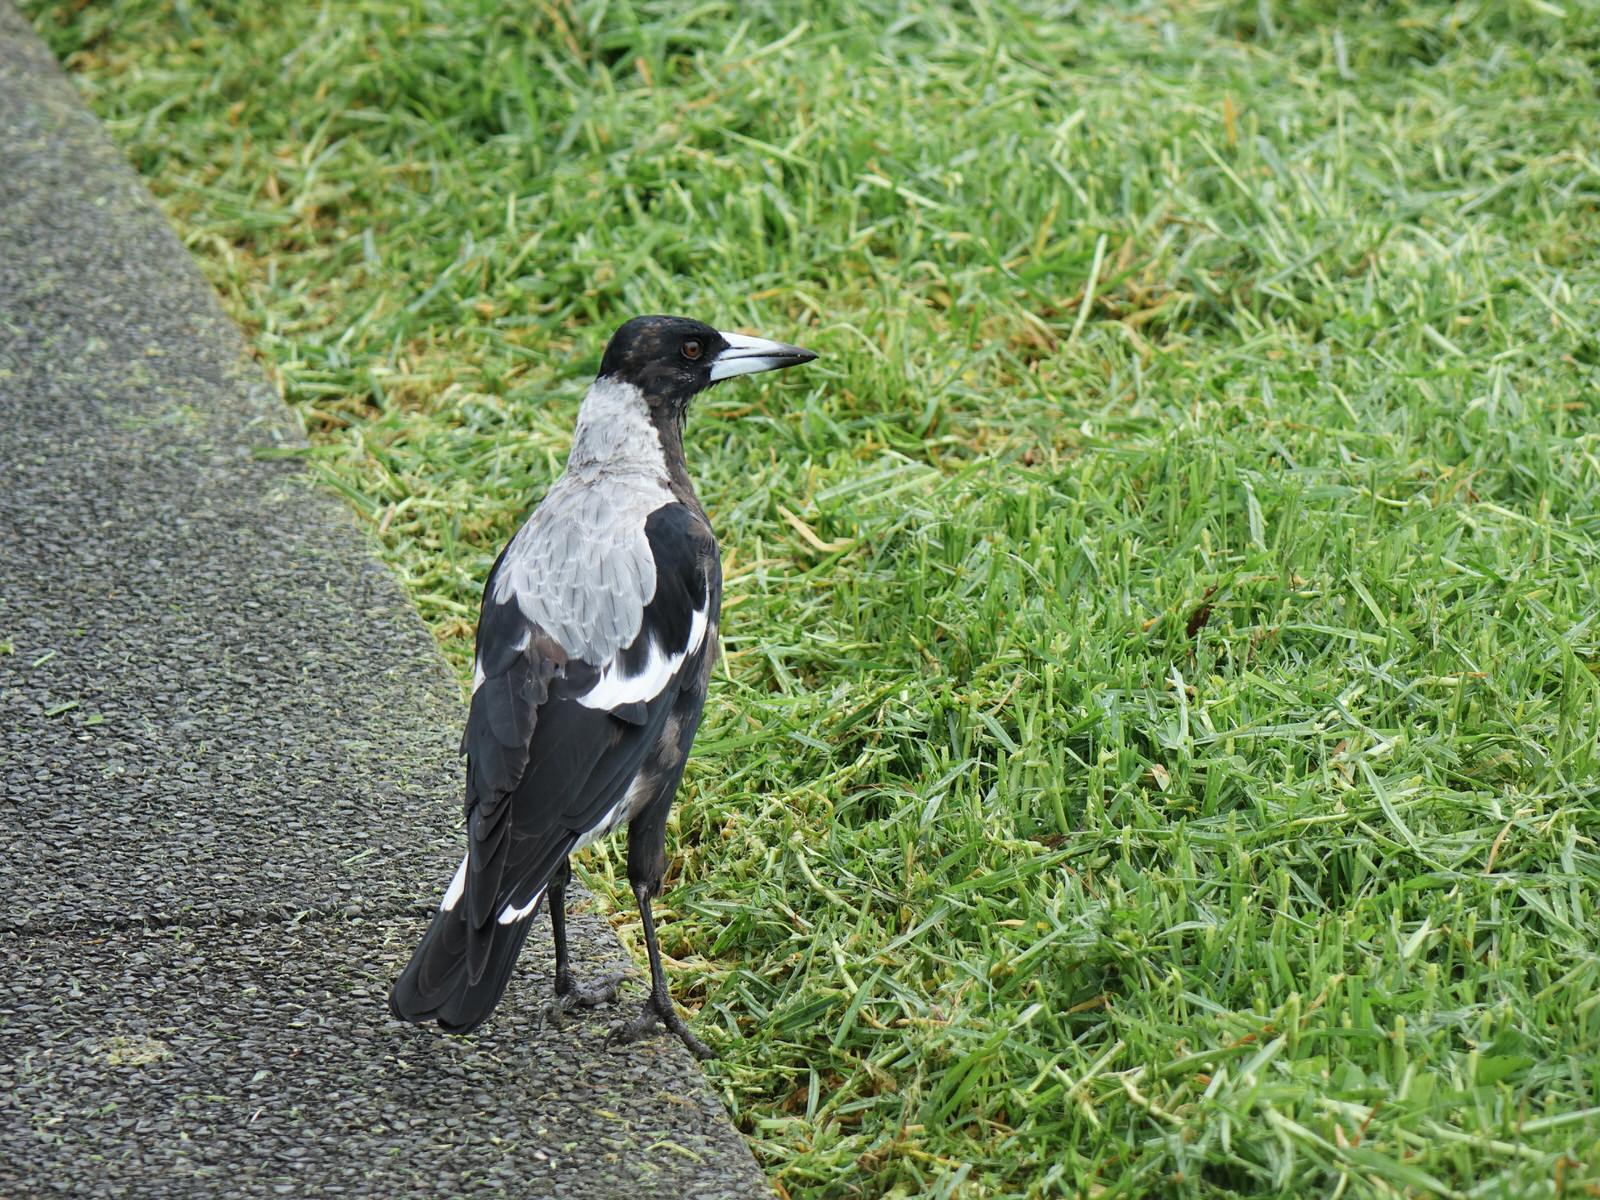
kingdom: Animalia
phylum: Chordata
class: Aves
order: Passeriformes
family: Cracticidae
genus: Gymnorhina
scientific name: Gymnorhina tibicen
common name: Australian magpie
